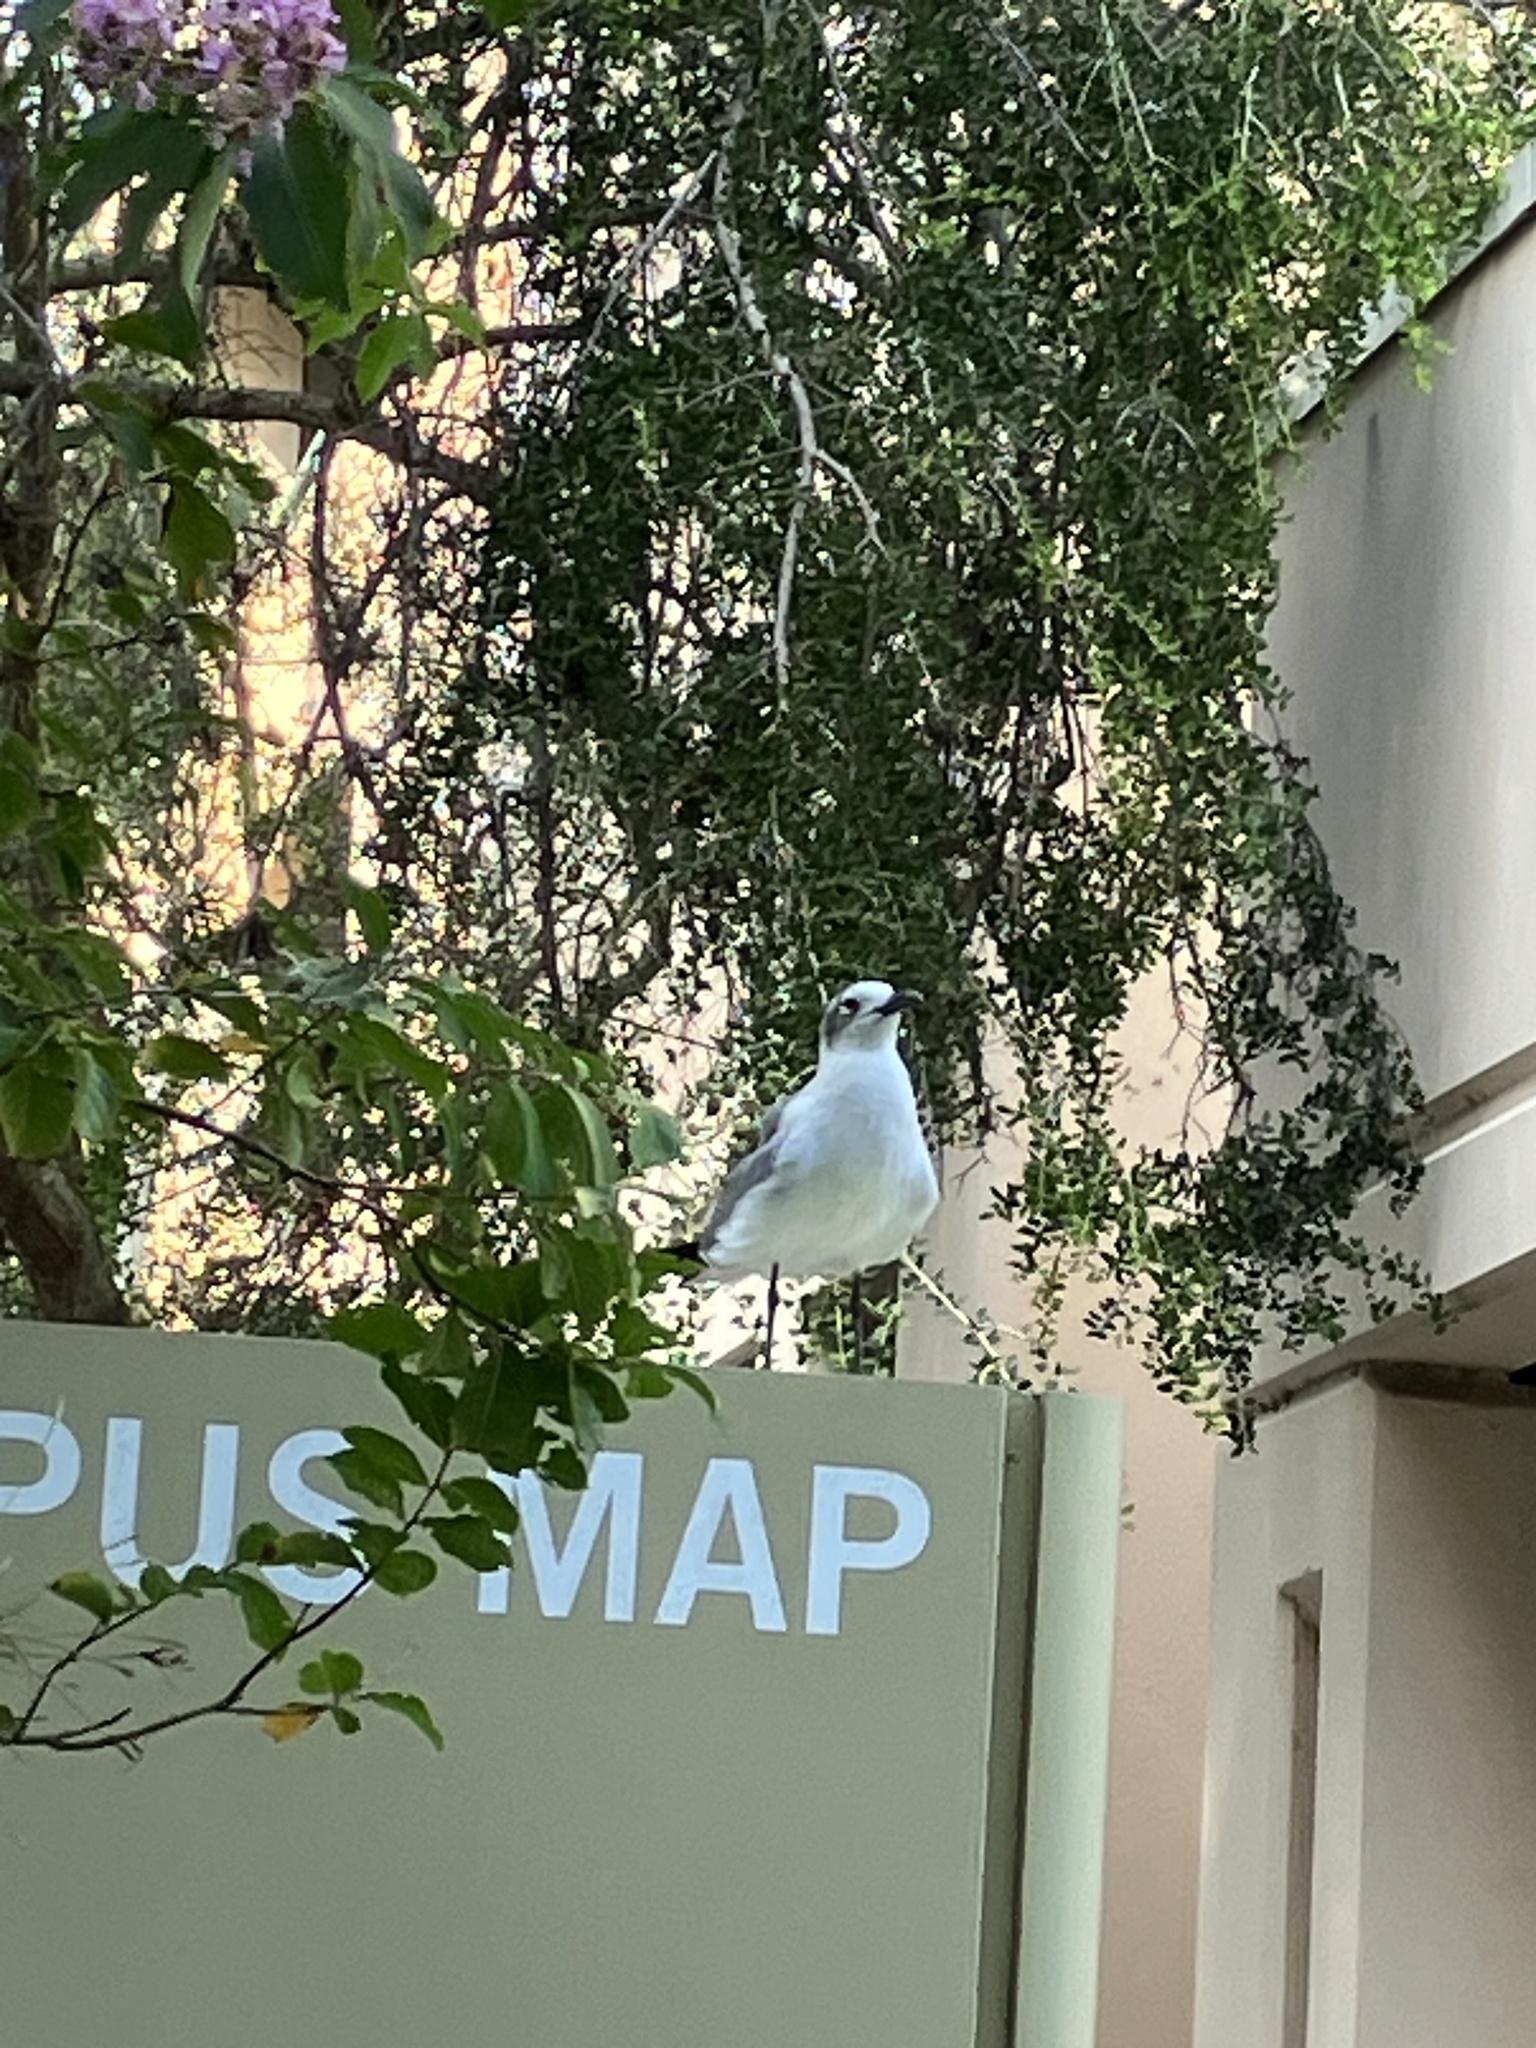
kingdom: Animalia
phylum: Chordata
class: Aves
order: Charadriiformes
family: Laridae
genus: Leucophaeus
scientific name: Leucophaeus atricilla
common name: Laughing gull
